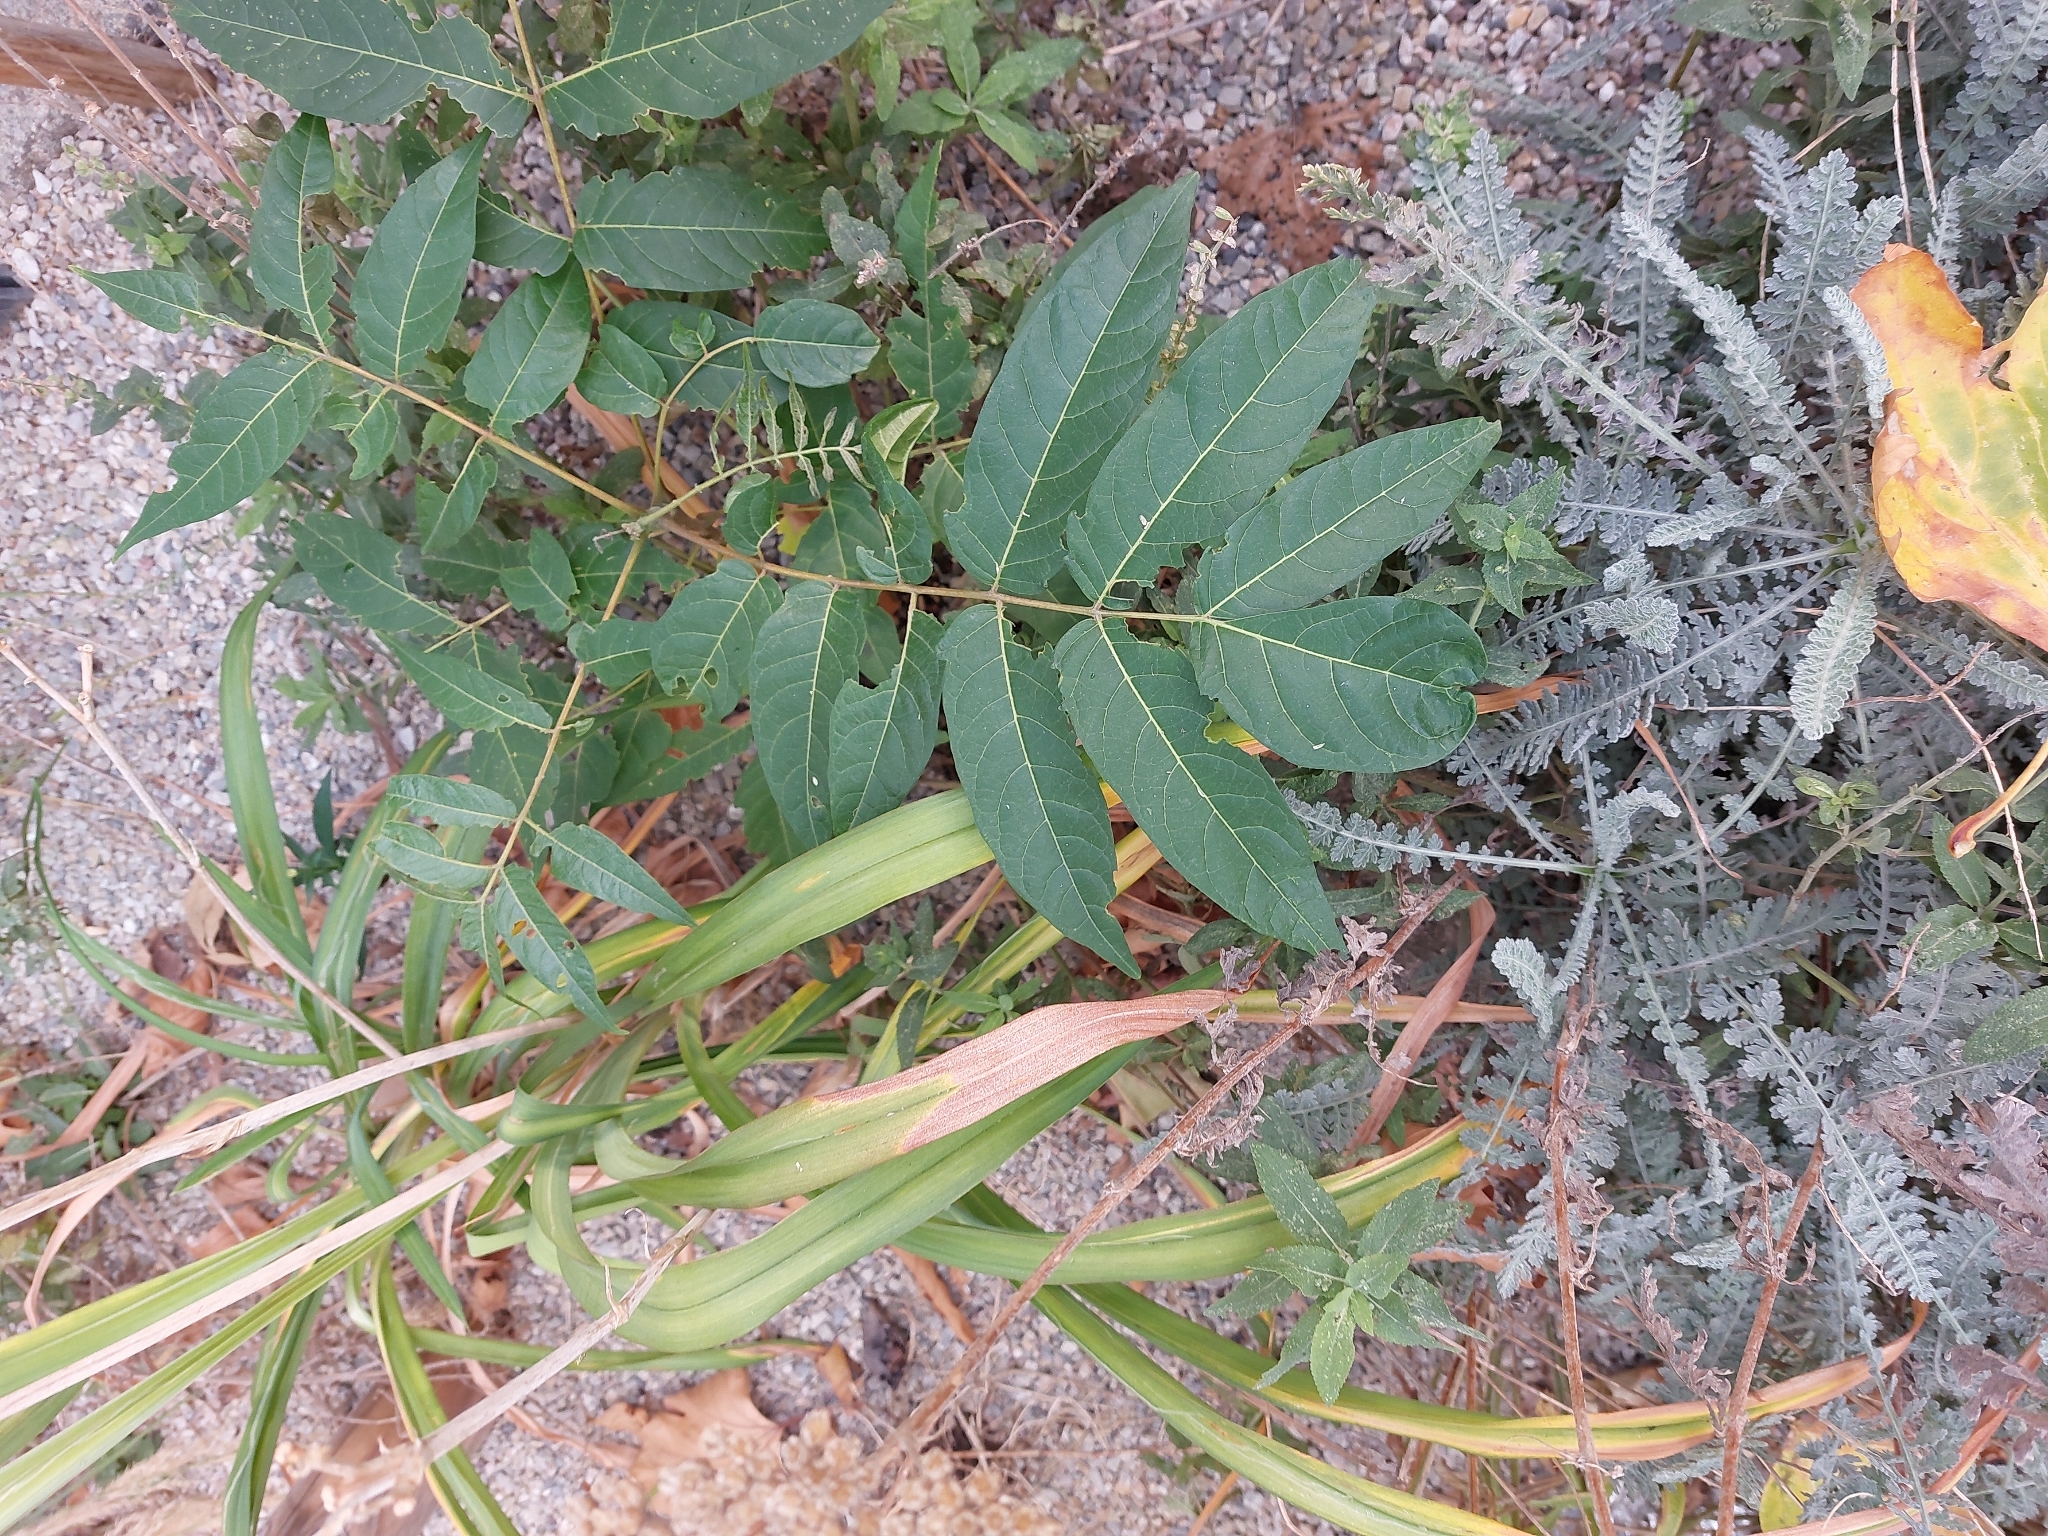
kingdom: Plantae
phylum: Tracheophyta
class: Magnoliopsida
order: Sapindales
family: Simaroubaceae
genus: Ailanthus
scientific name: Ailanthus altissima
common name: Tree-of-heaven
